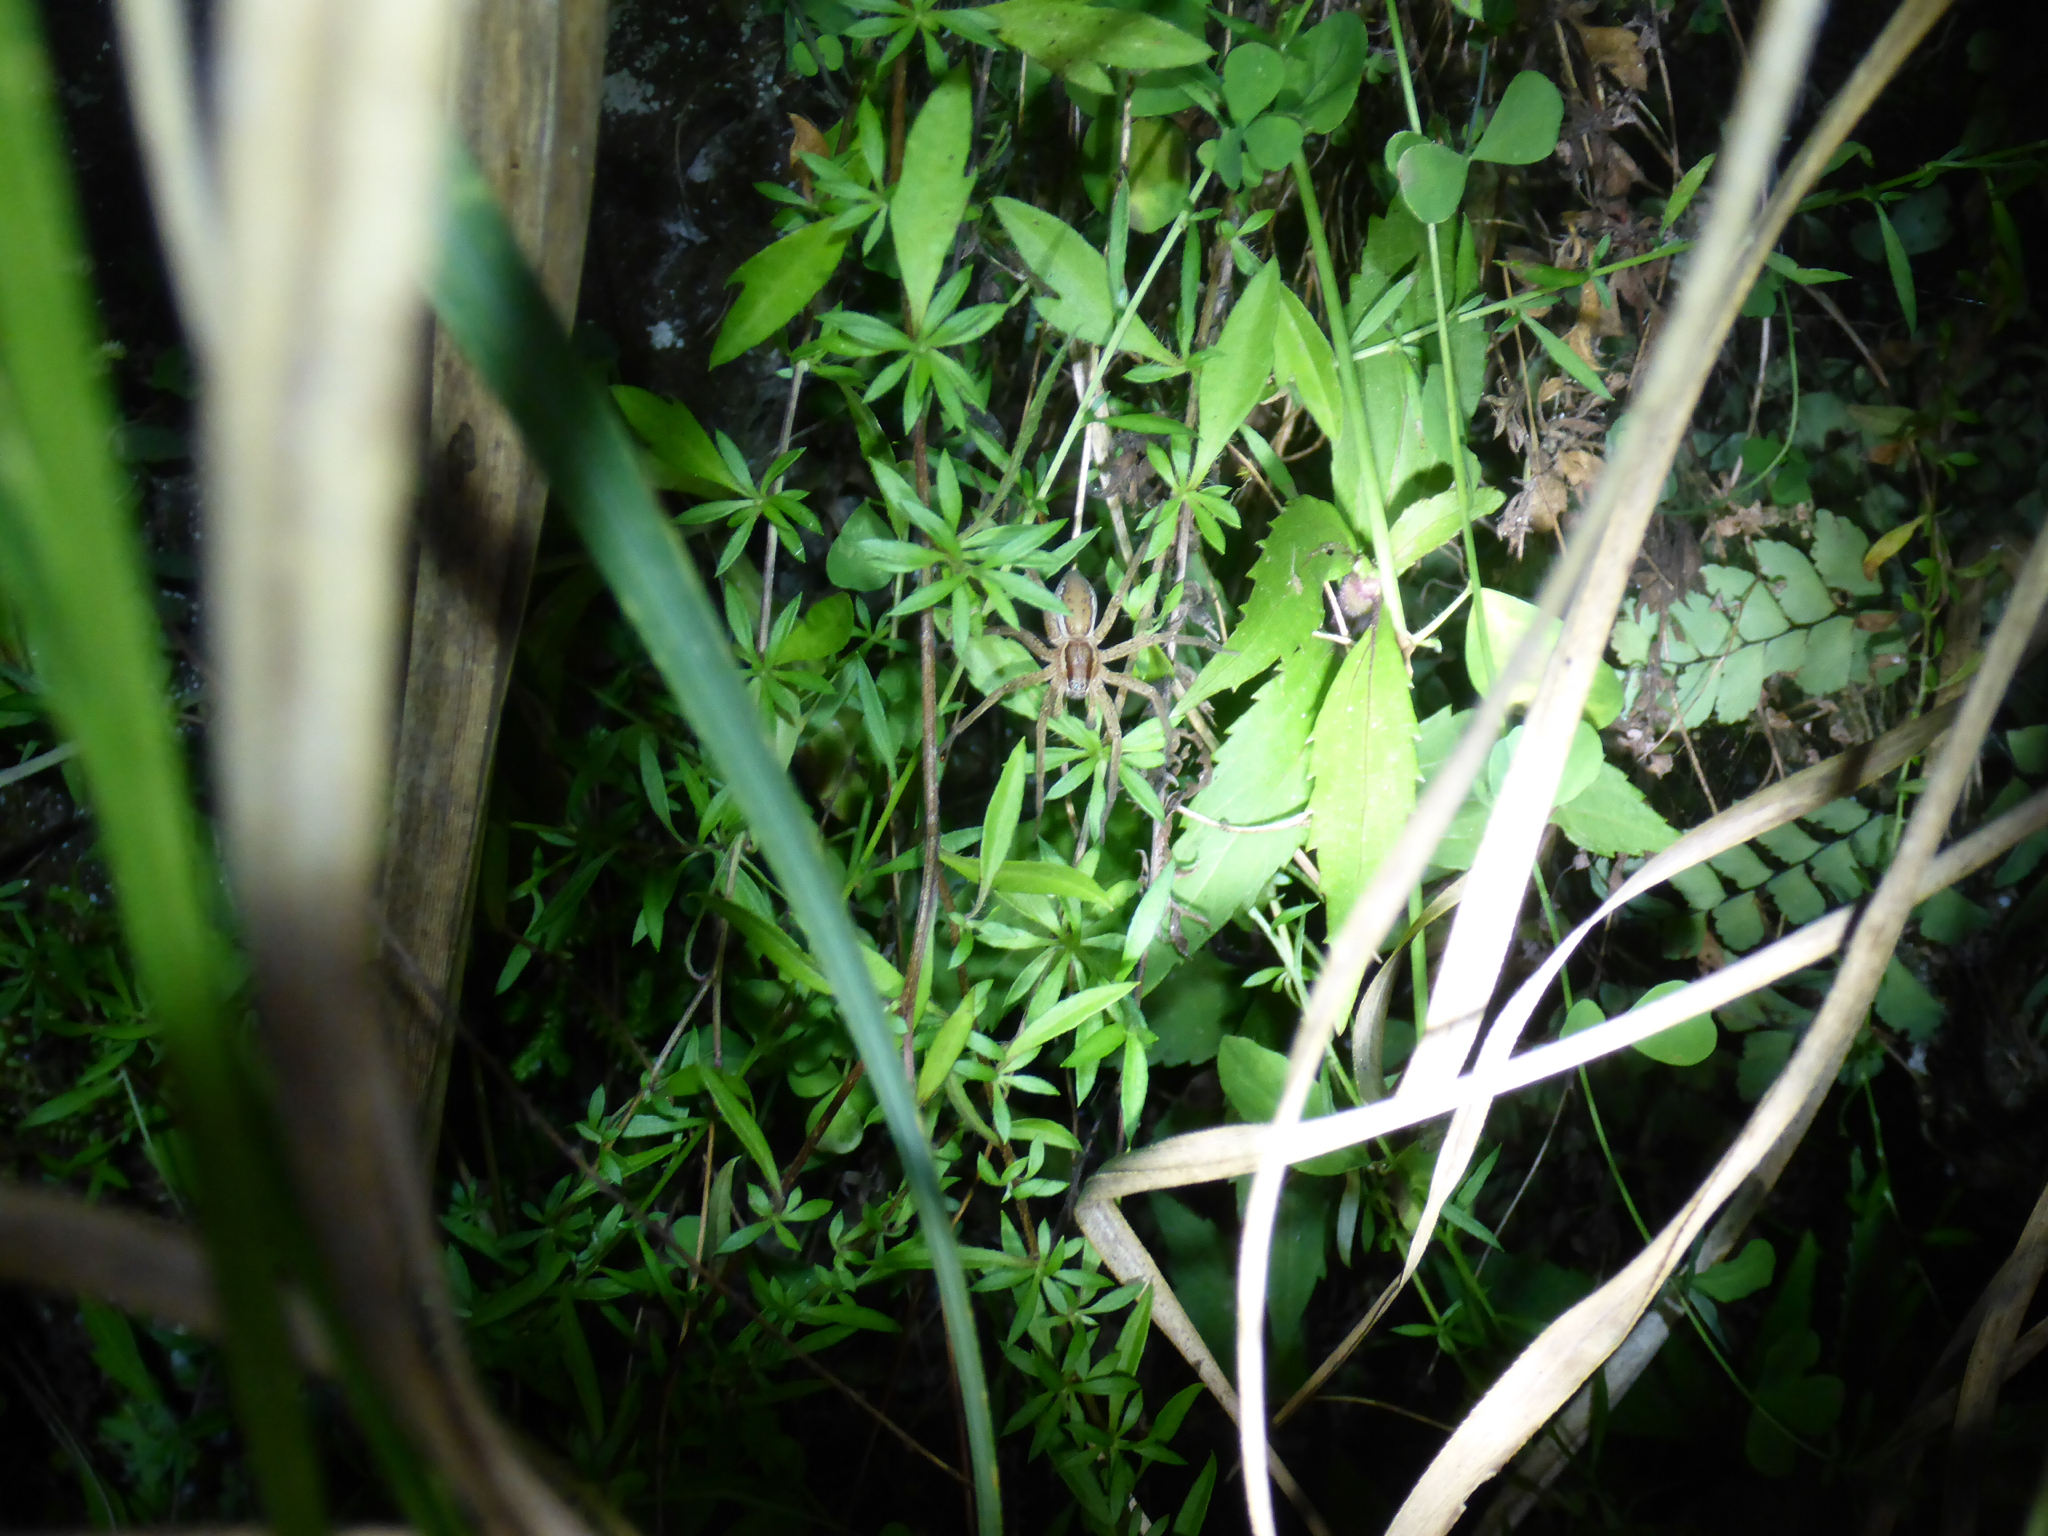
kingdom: Animalia
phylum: Arthropoda
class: Arachnida
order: Araneae
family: Pisauridae
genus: Dolomedes
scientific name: Dolomedes minor
